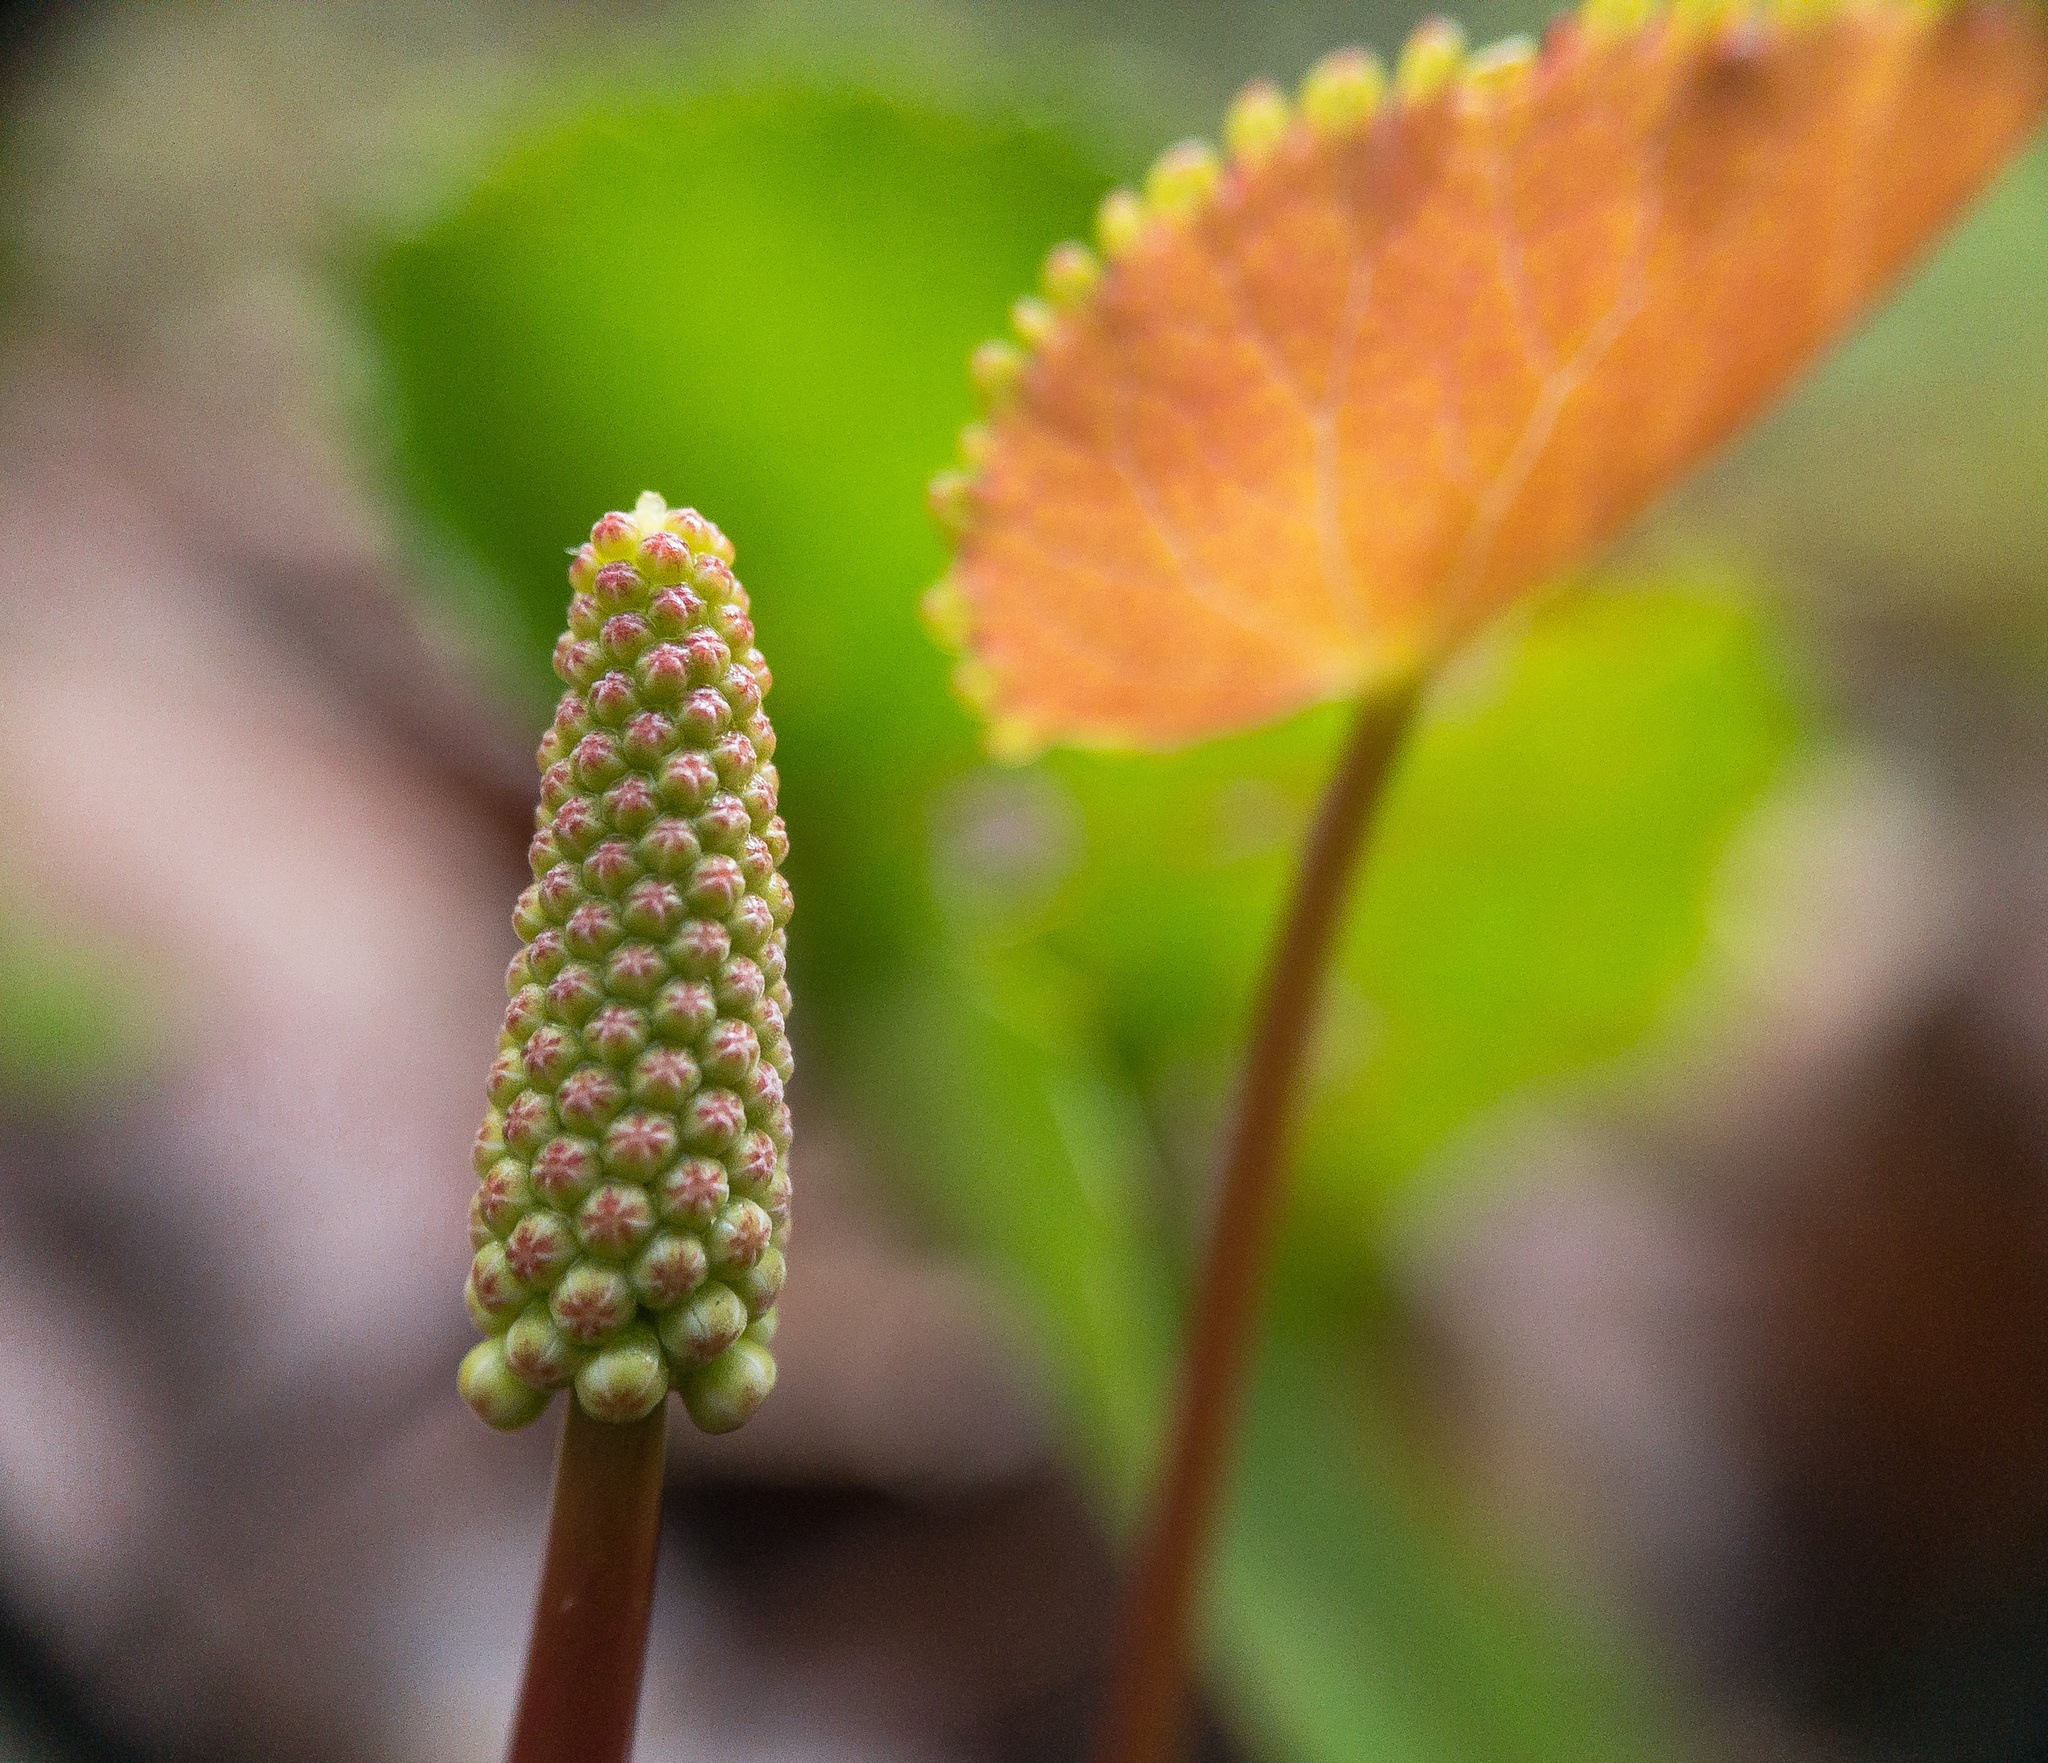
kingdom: Plantae
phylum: Tracheophyta
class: Magnoliopsida
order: Ericales
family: Diapensiaceae
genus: Galax
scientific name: Galax urceolata
